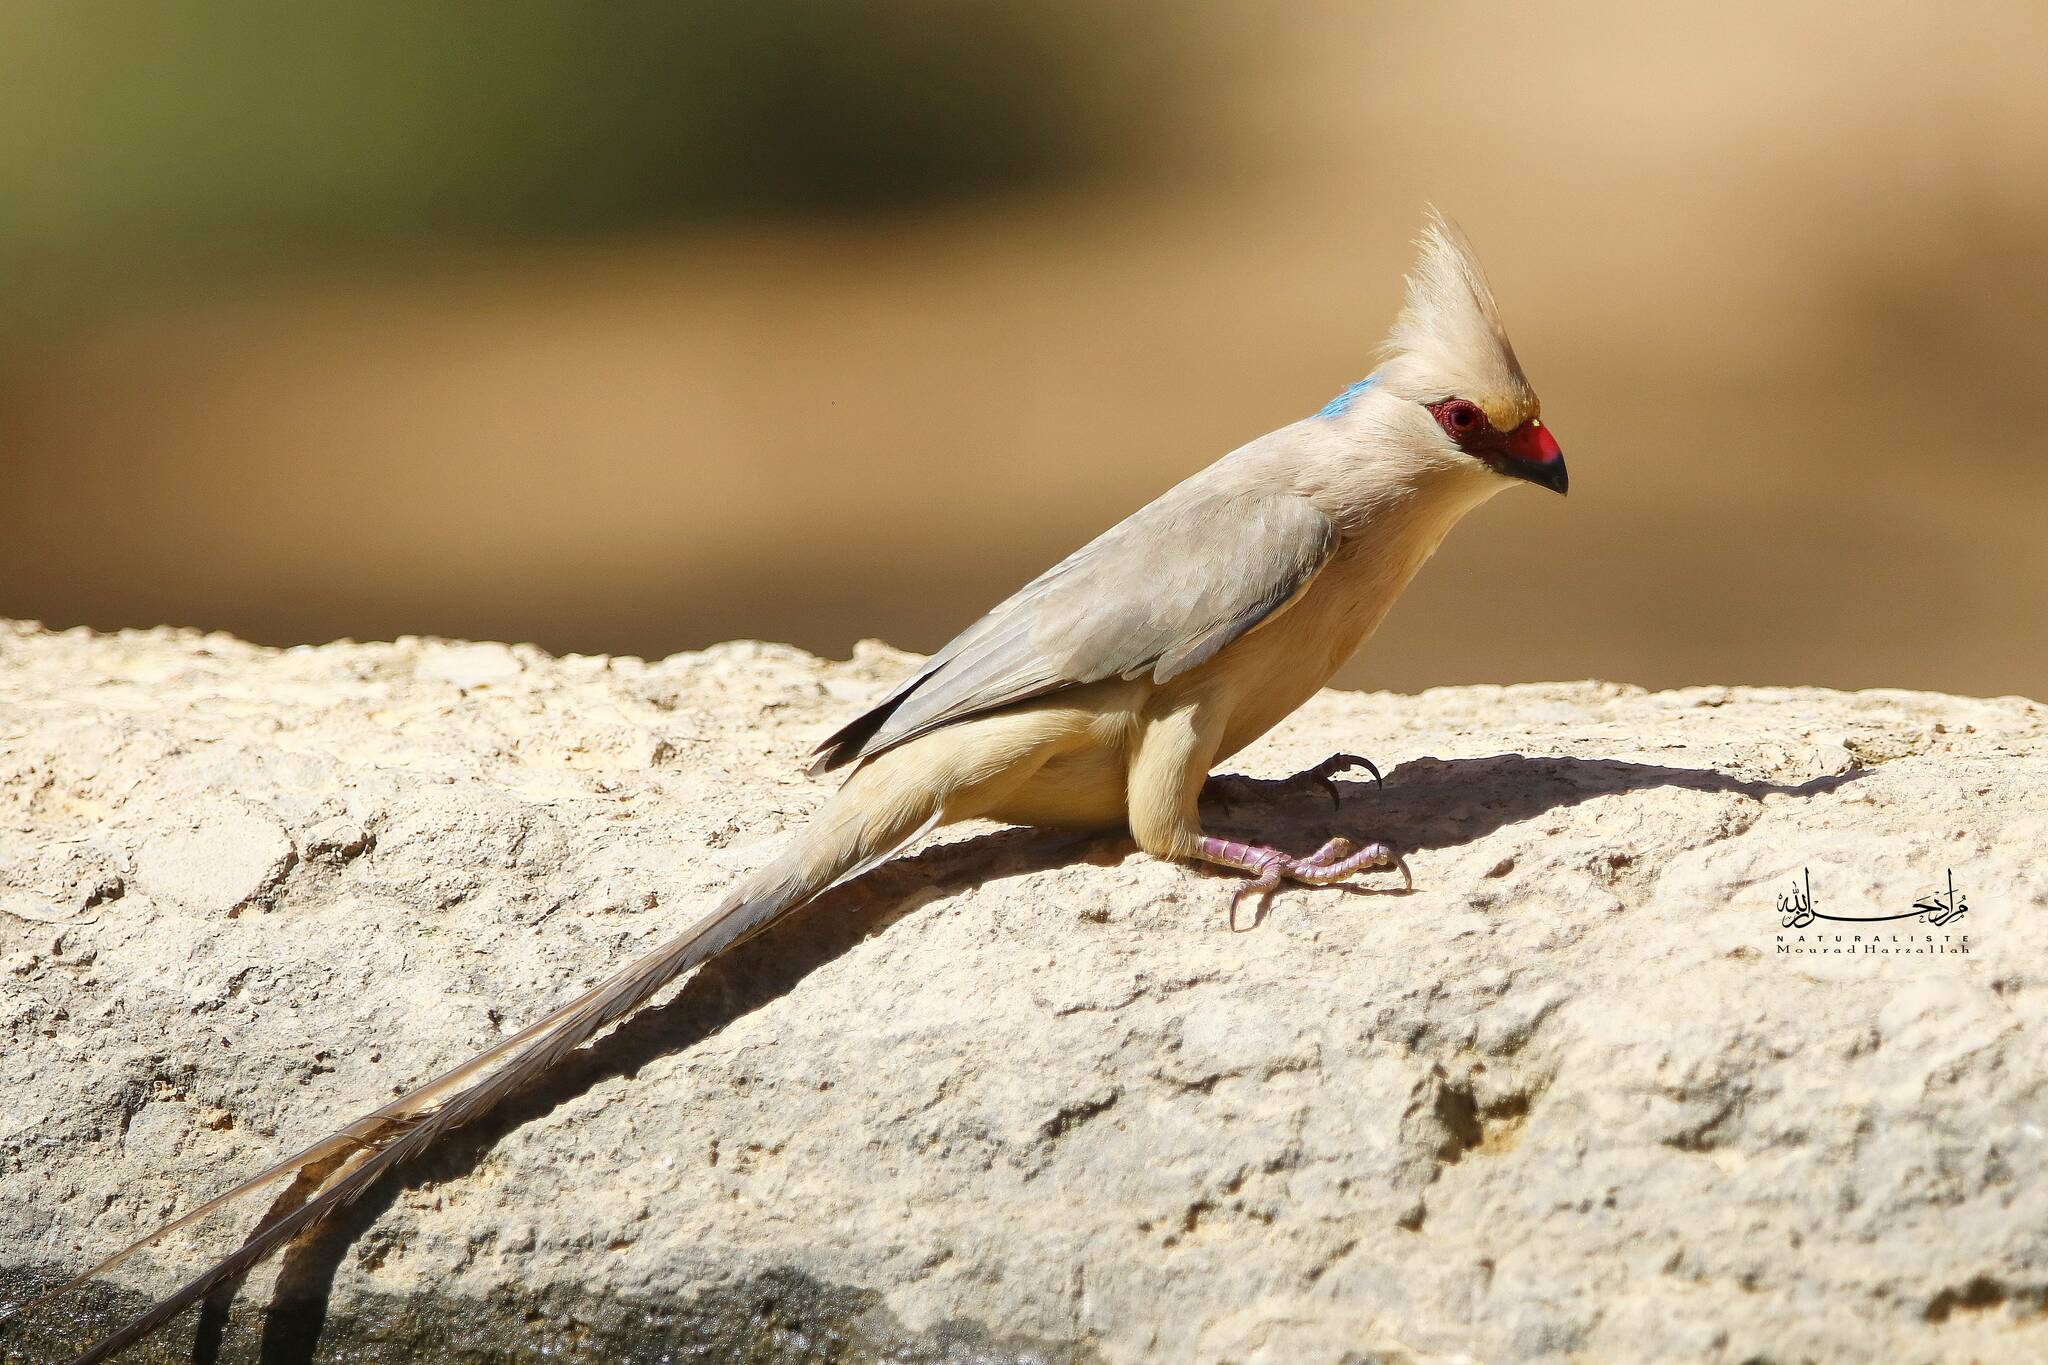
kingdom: Animalia
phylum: Chordata
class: Aves
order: Coliiformes
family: Coliidae
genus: Urocolius
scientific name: Urocolius macrourus
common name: Blue-naped mousebird
